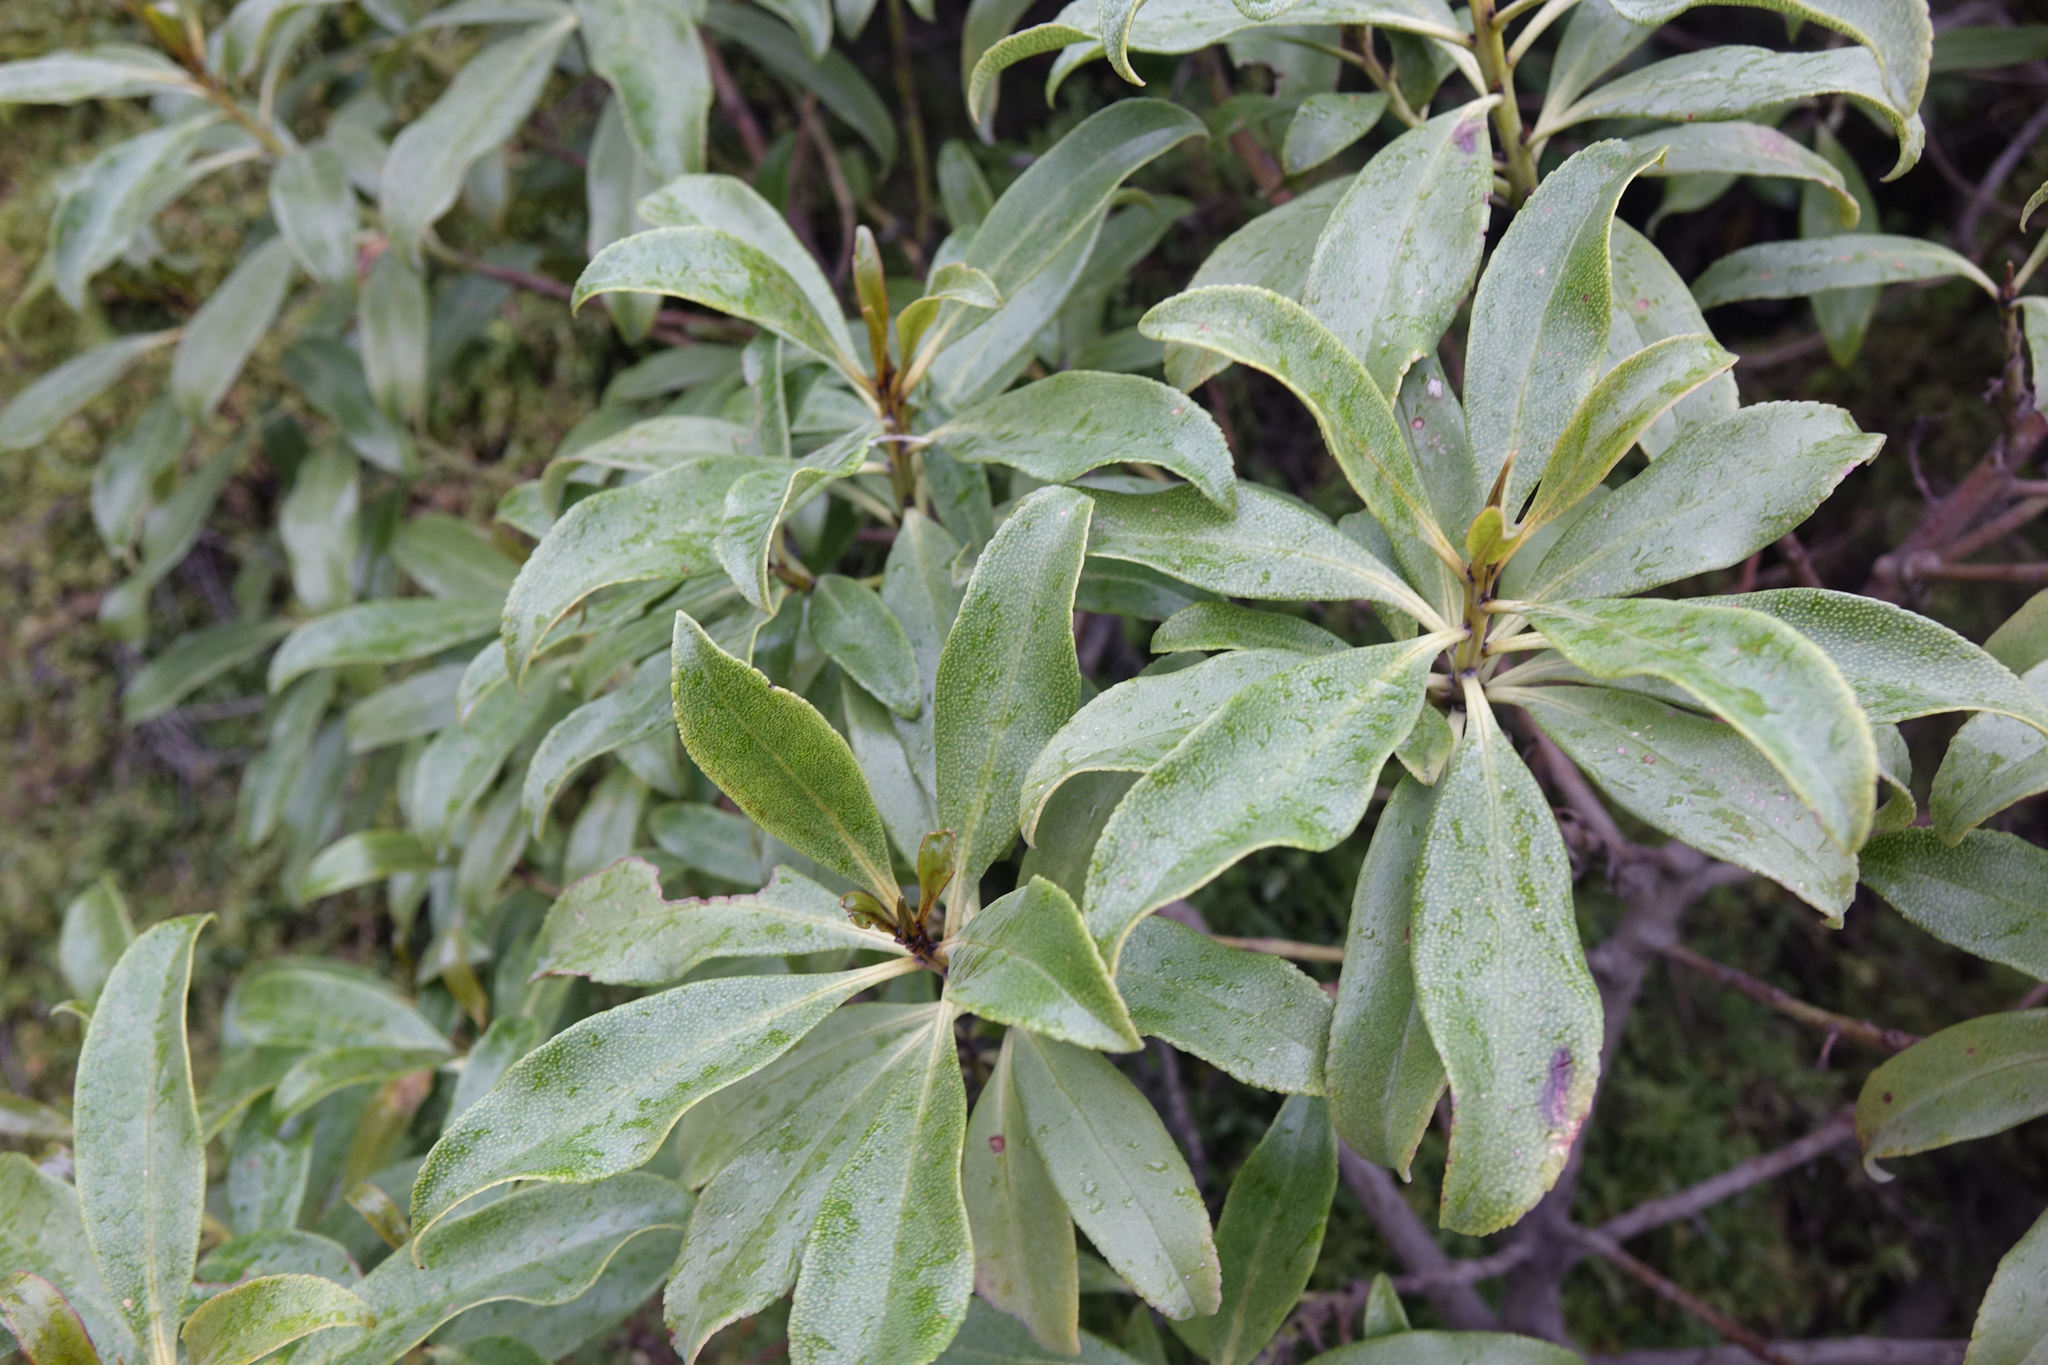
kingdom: Plantae
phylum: Tracheophyta
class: Magnoliopsida
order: Lamiales
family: Scrophulariaceae
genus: Myoporum
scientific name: Myoporum laetum
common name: Ngaio tree
